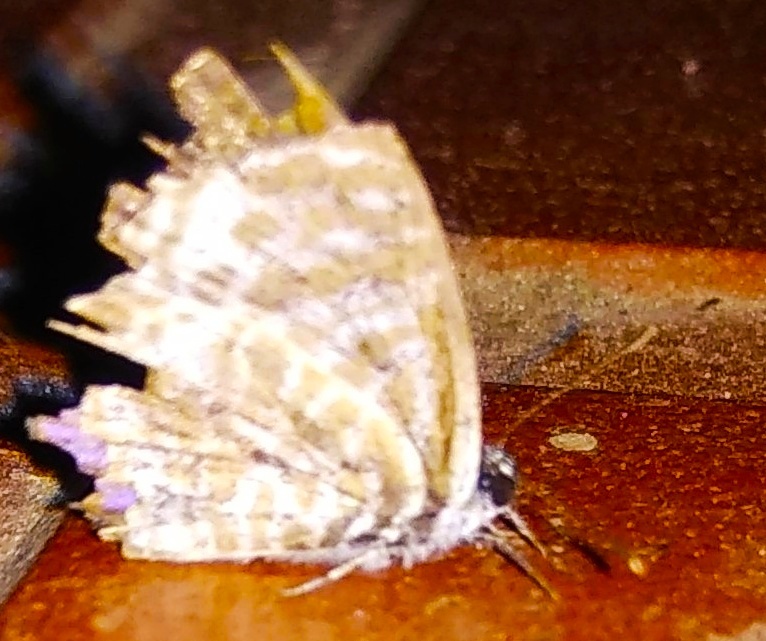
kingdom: Animalia
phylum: Arthropoda
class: Insecta
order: Lepidoptera
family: Lycaenidae
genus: Leptotes
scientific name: Leptotes plinius
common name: Zebra blue
